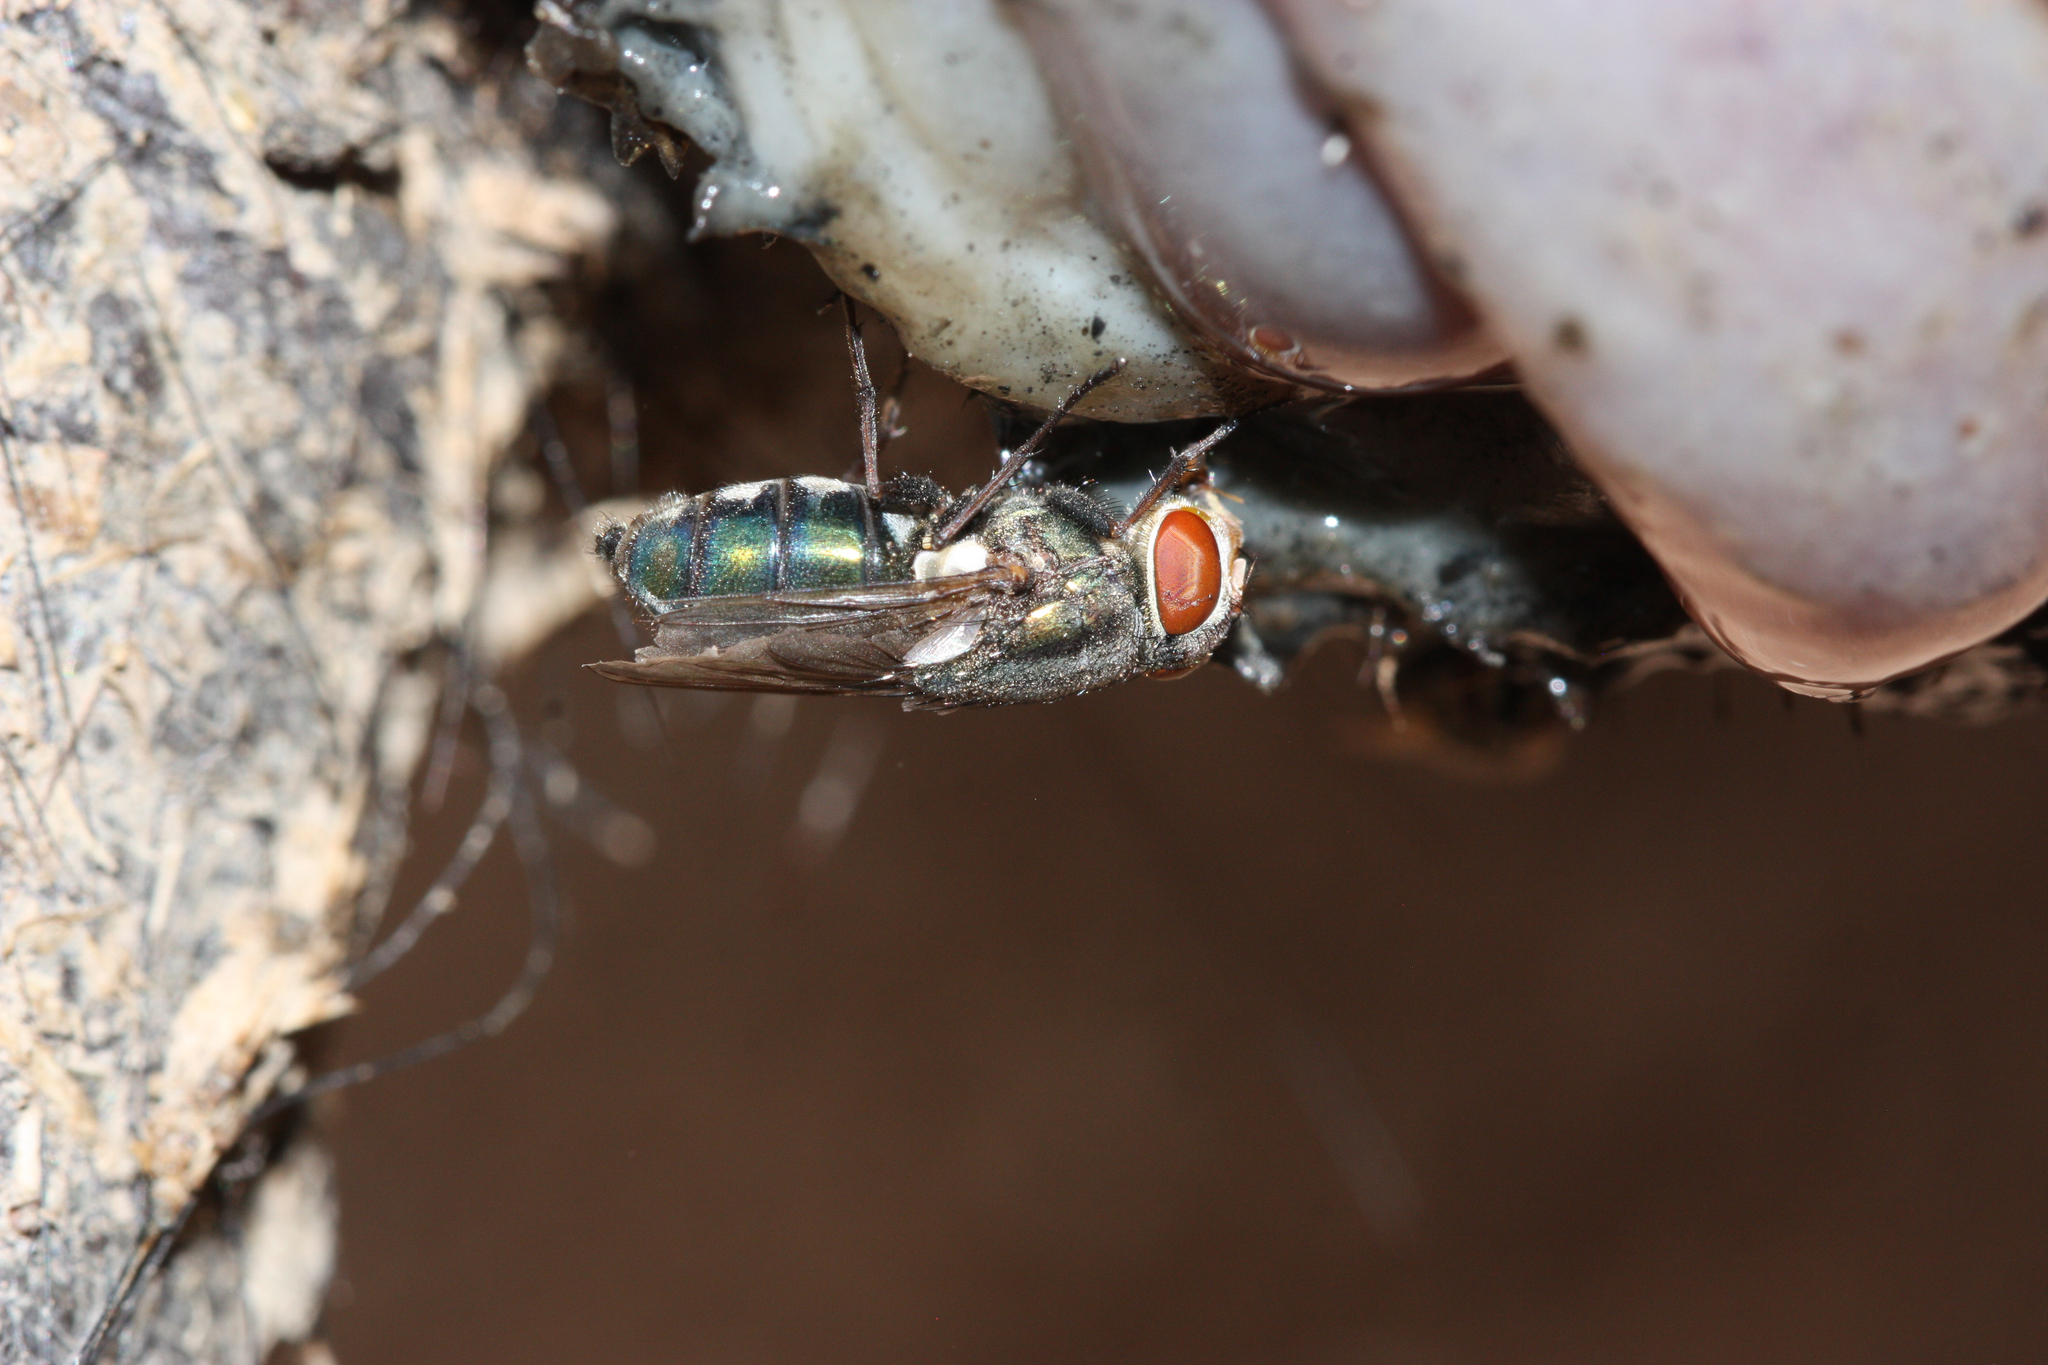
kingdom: Animalia
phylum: Arthropoda
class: Insecta
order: Diptera
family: Calliphoridae
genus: Cochliomyia
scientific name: Cochliomyia macellaria
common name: Secondary screwworm
